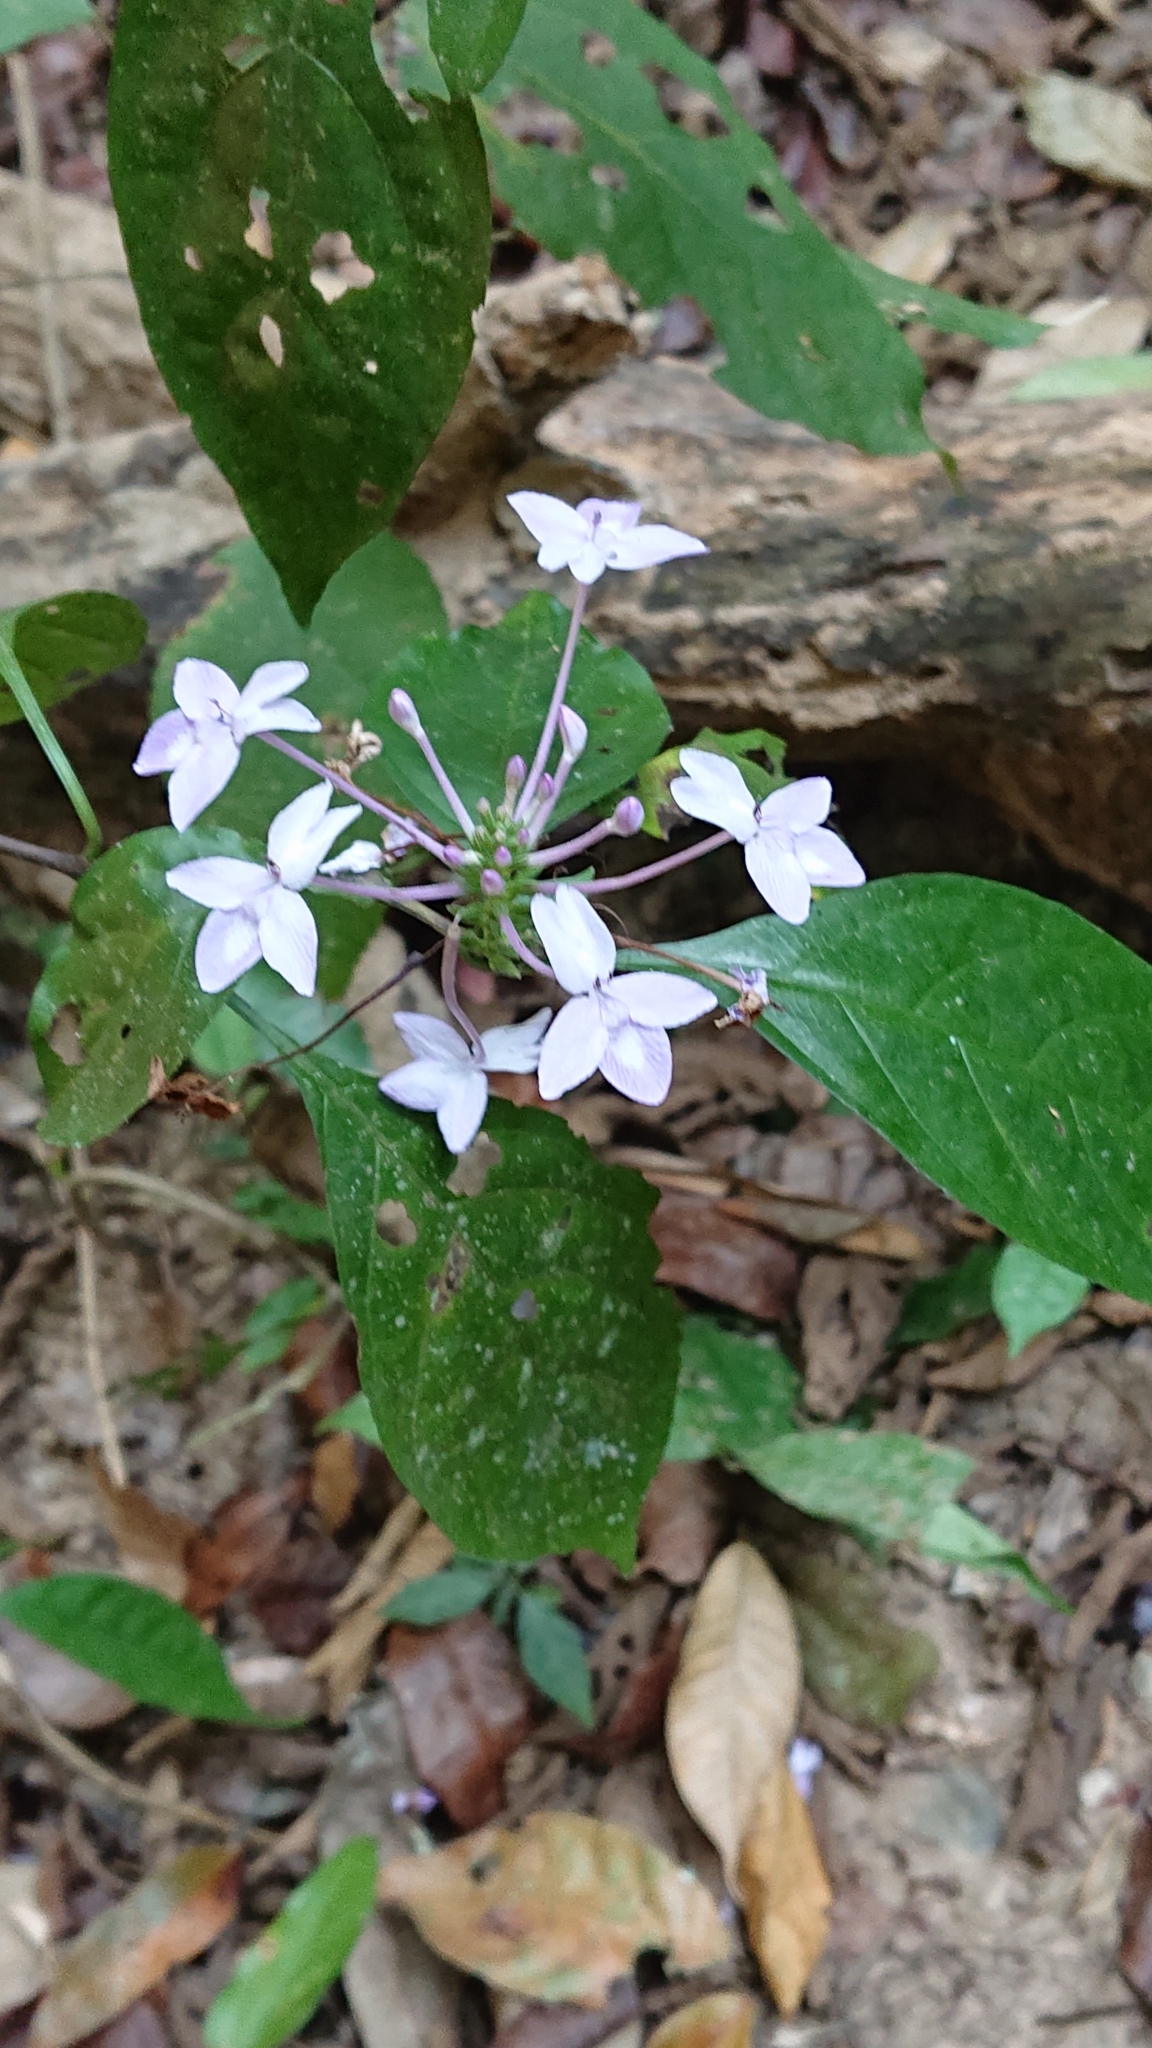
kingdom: Plantae
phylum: Tracheophyta
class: Magnoliopsida
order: Lamiales
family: Acanthaceae
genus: Pseuderanthemum
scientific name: Pseuderanthemum graciliflorum
